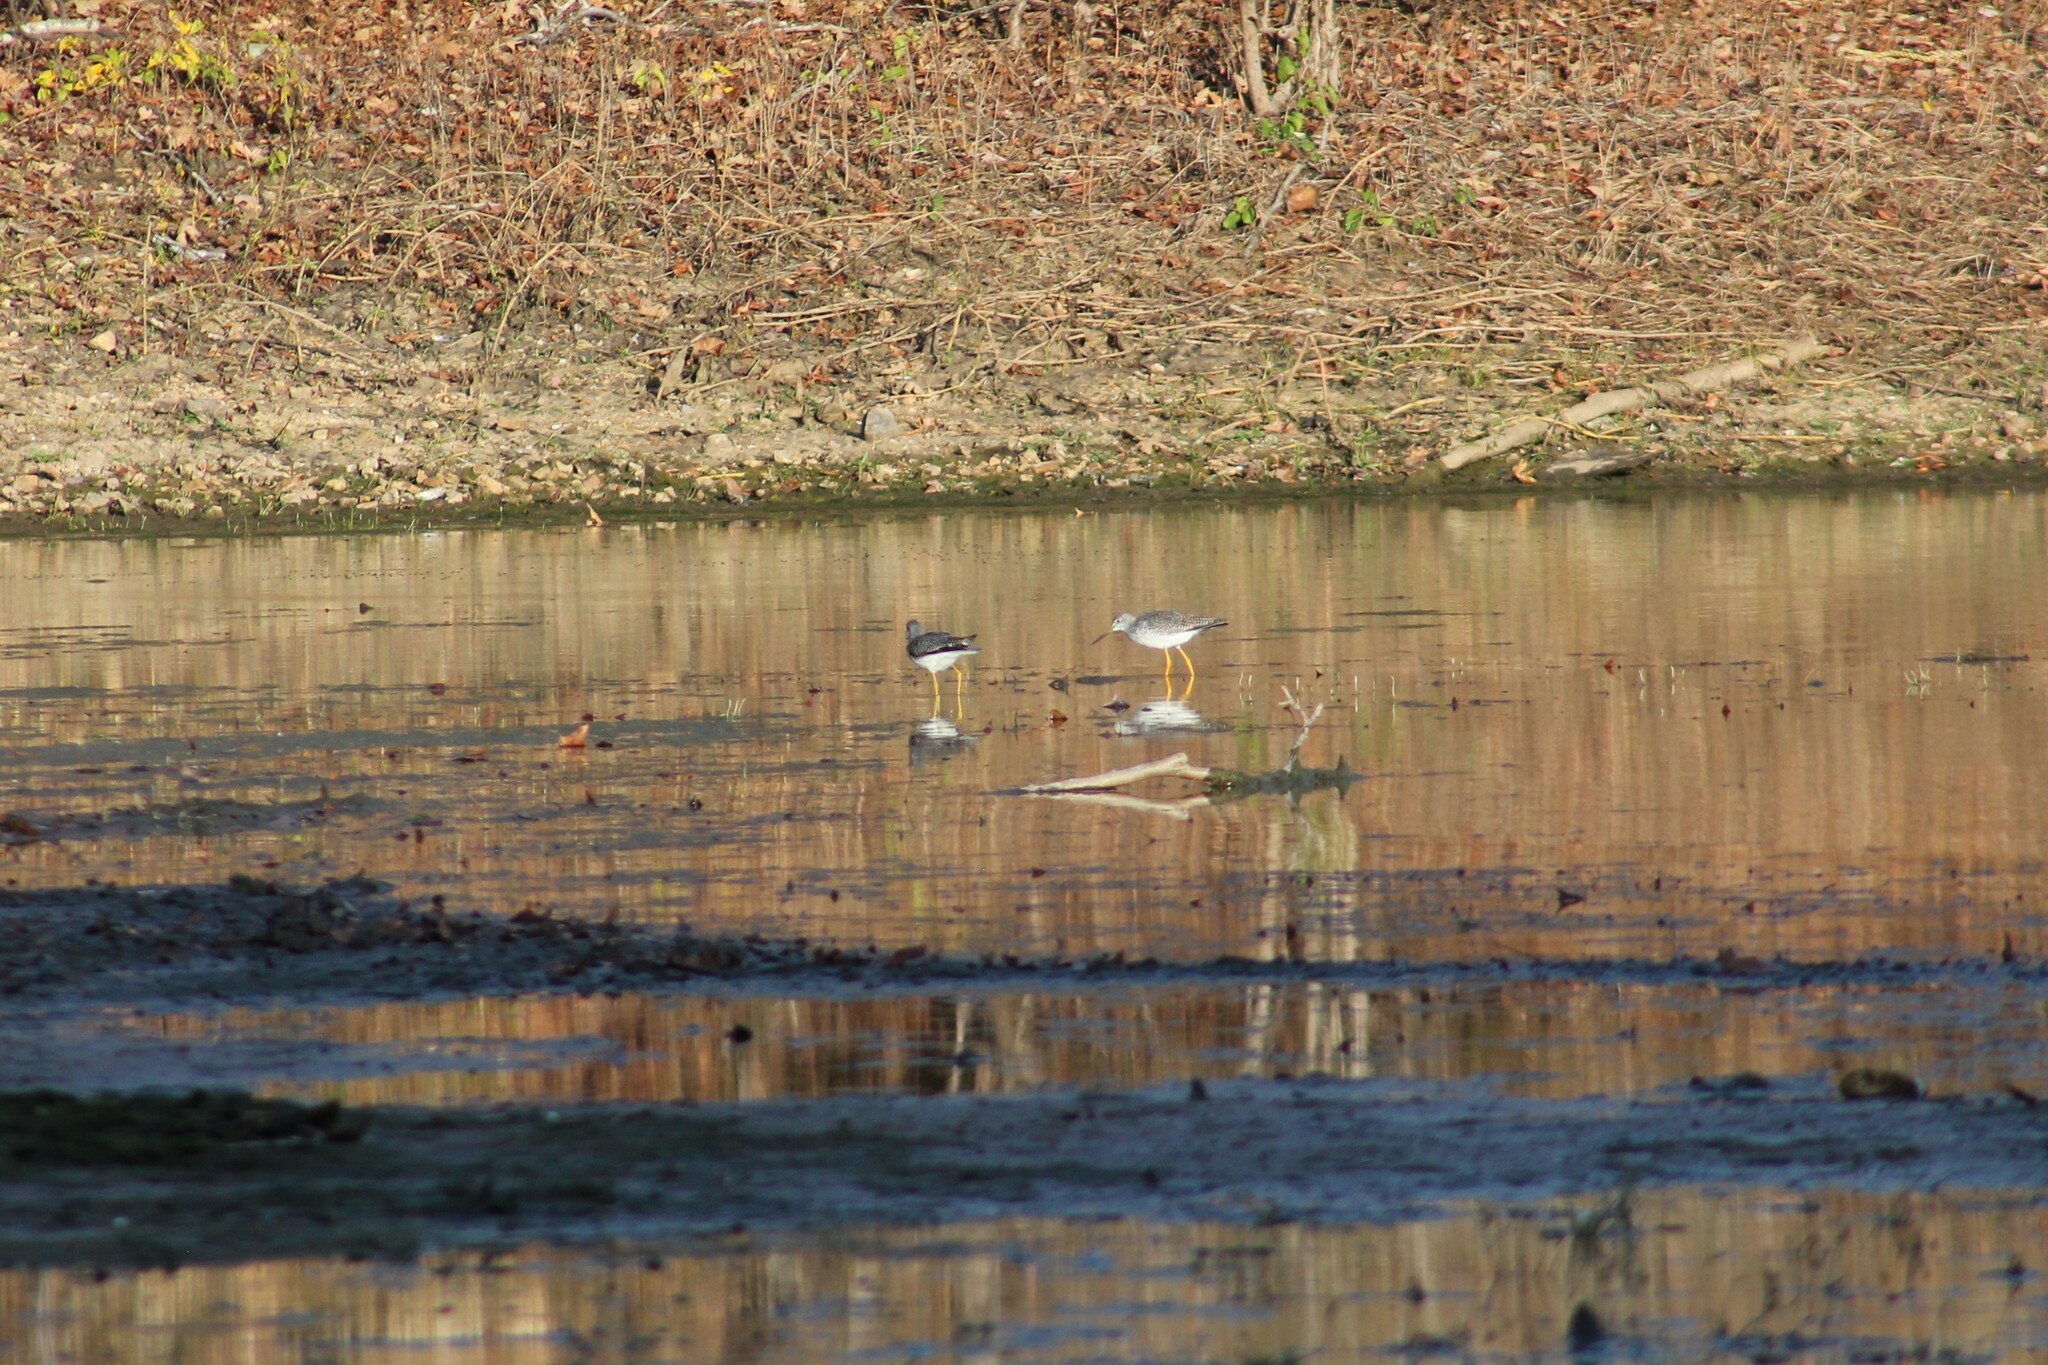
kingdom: Animalia
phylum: Chordata
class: Aves
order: Charadriiformes
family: Scolopacidae
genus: Tringa
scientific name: Tringa melanoleuca
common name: Greater yellowlegs
